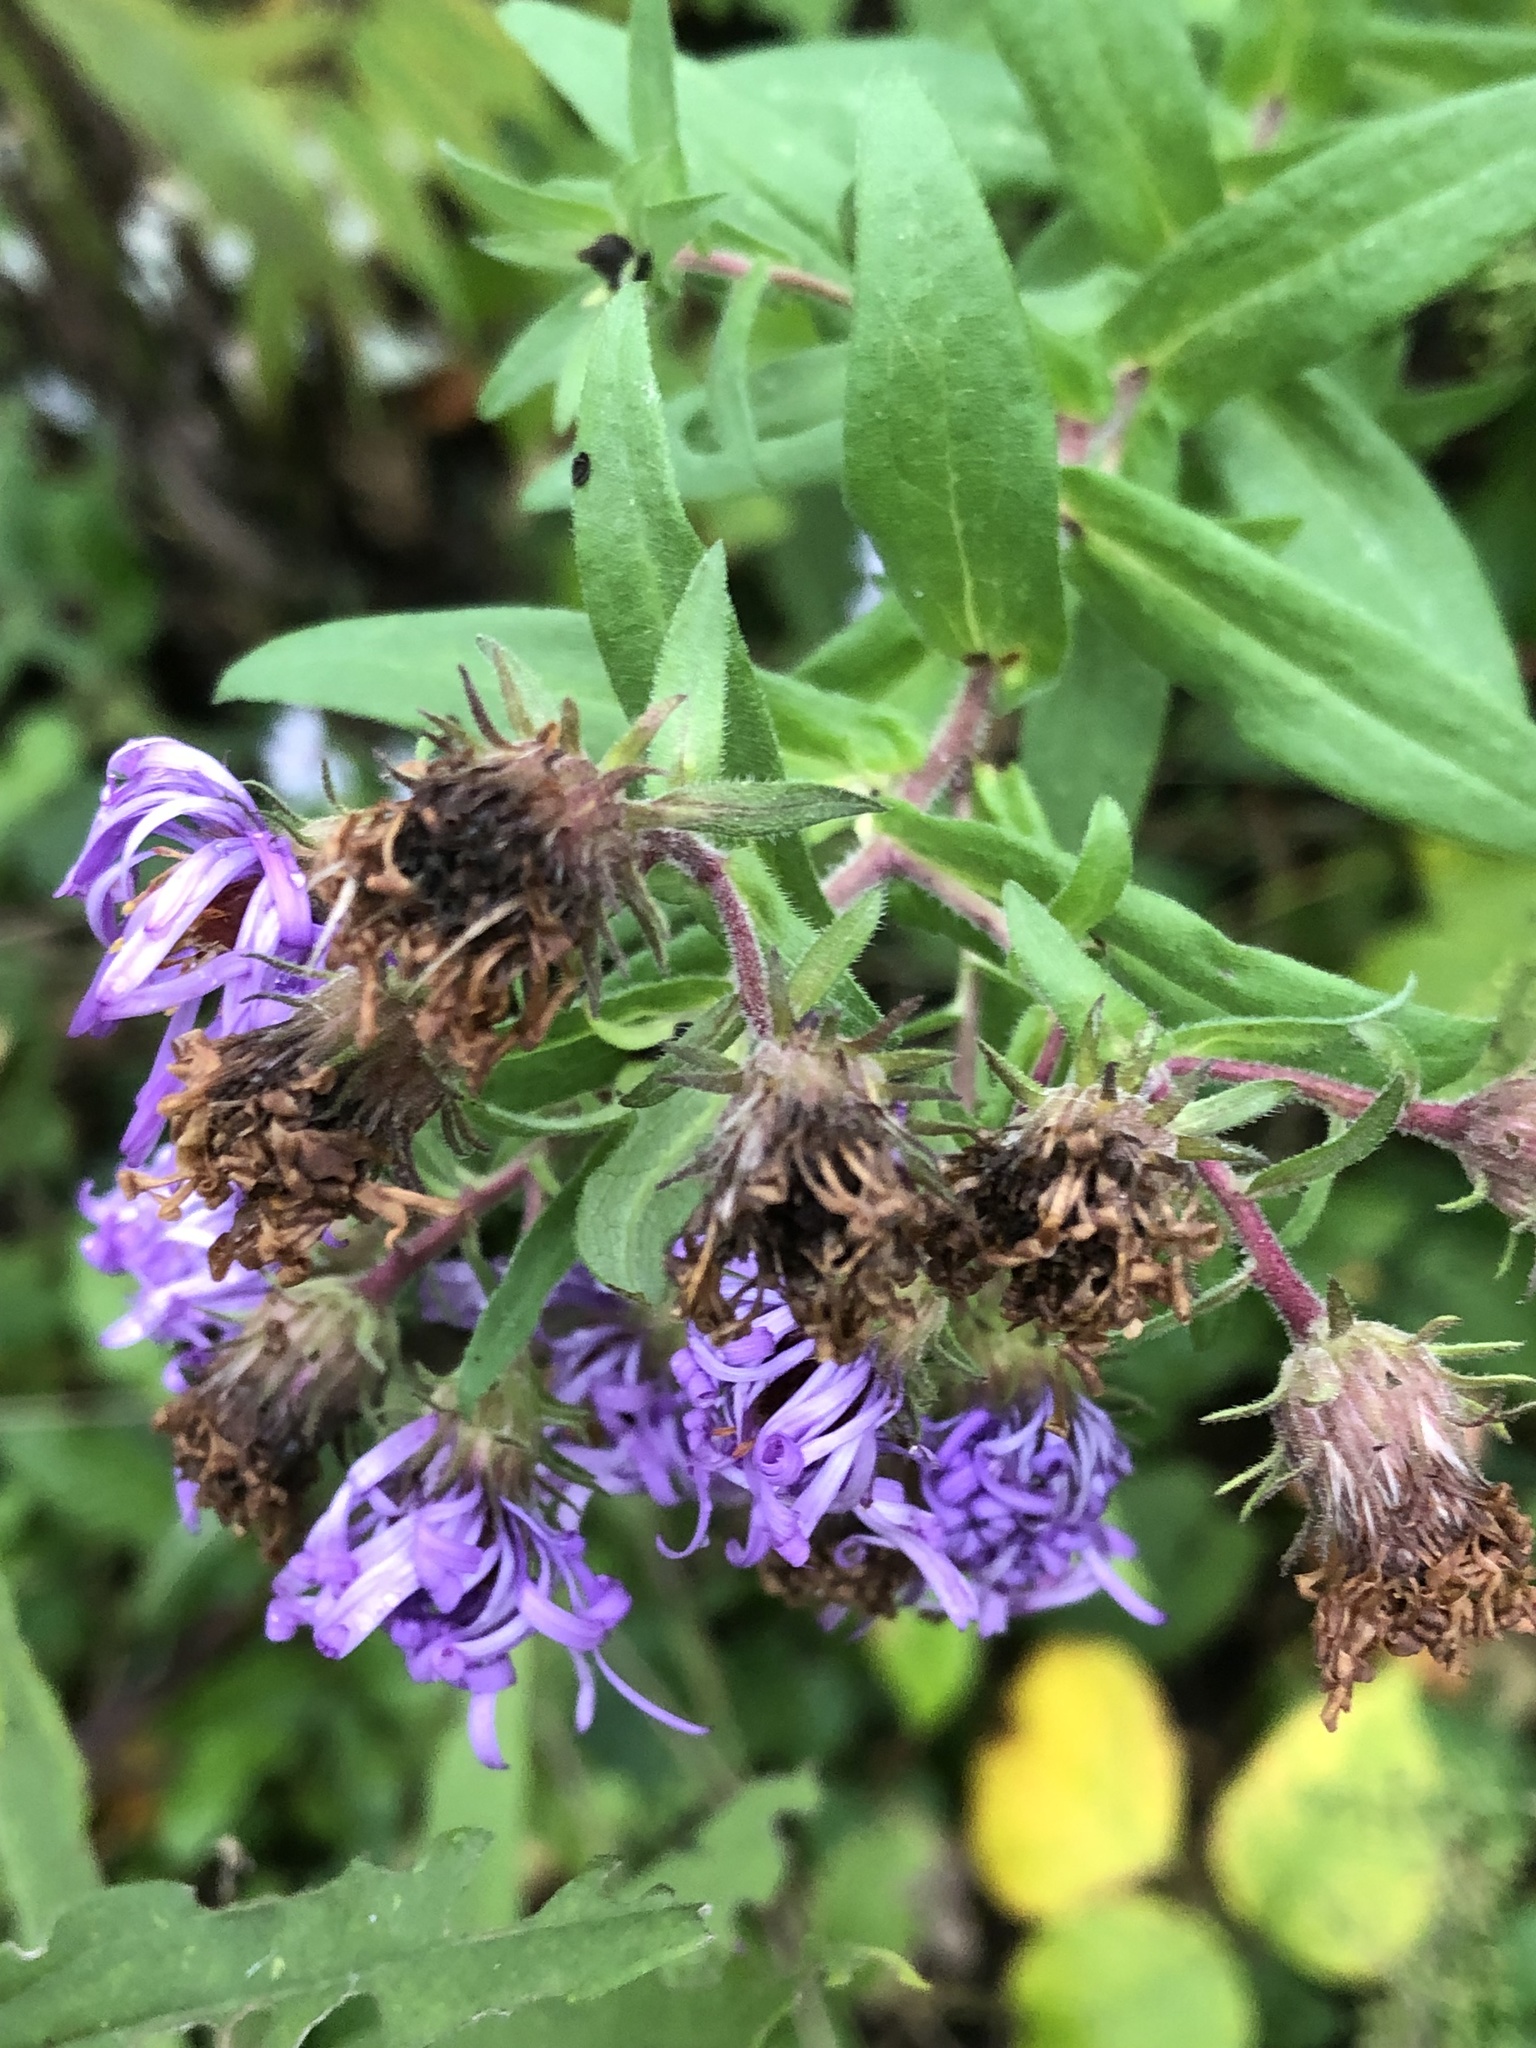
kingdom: Plantae
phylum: Tracheophyta
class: Magnoliopsida
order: Asterales
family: Asteraceae
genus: Symphyotrichum
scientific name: Symphyotrichum novae-angliae
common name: Michaelmas daisy
